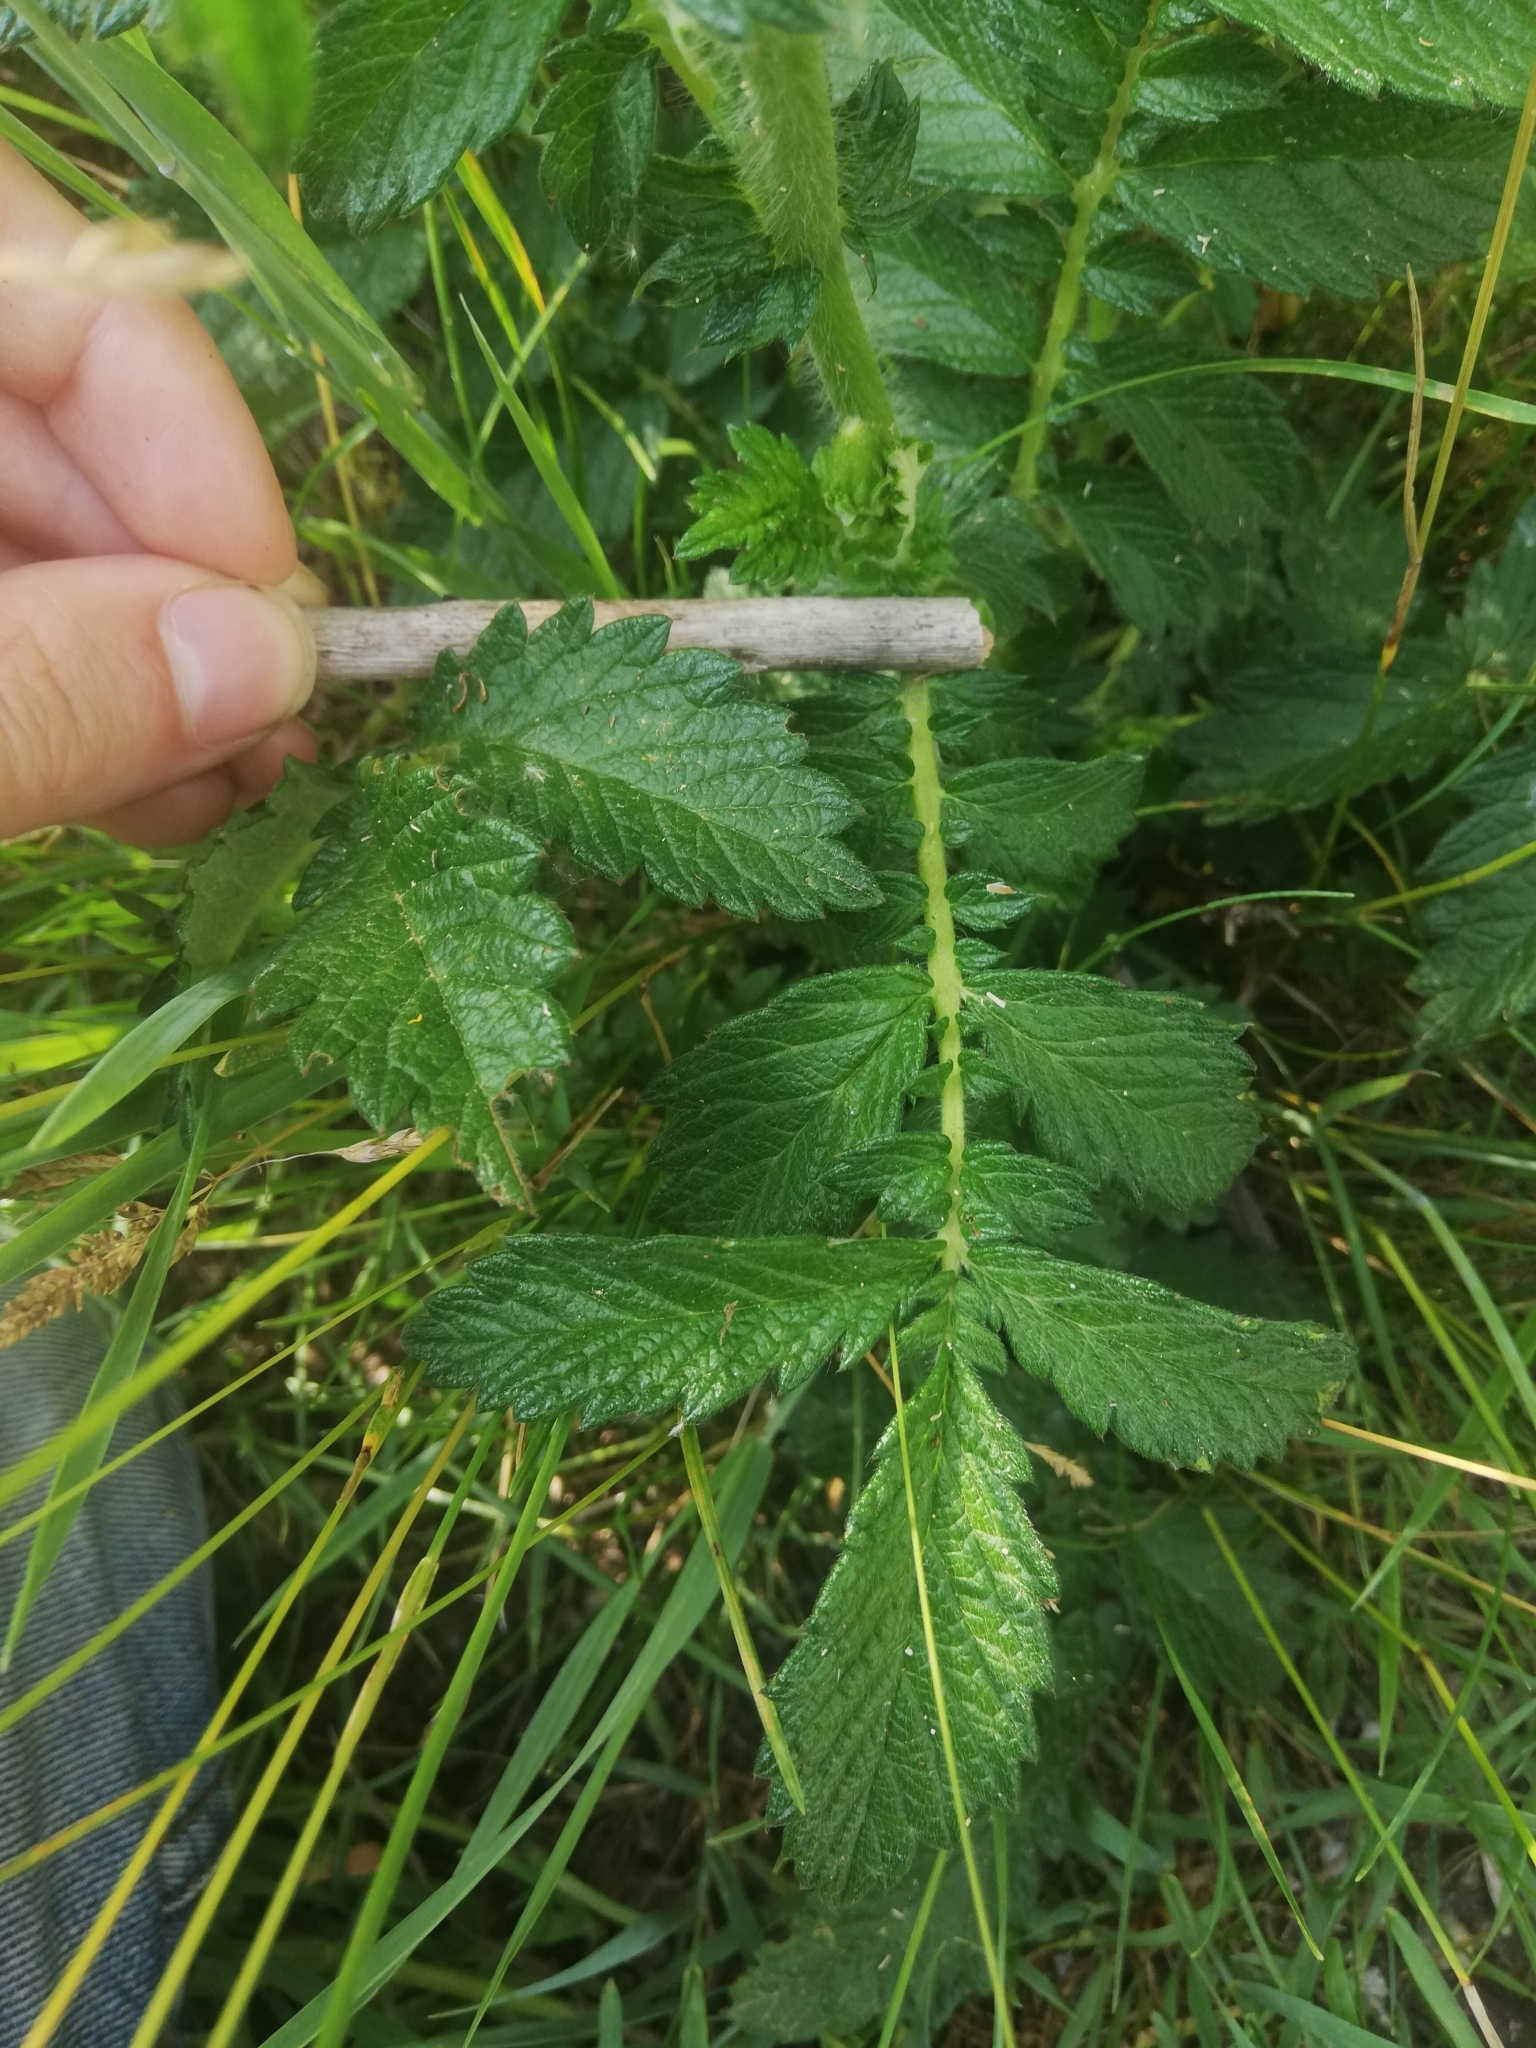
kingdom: Plantae
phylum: Tracheophyta
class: Magnoliopsida
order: Rosales
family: Rosaceae
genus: Agrimonia
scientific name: Agrimonia eupatoria
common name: Agrimony
